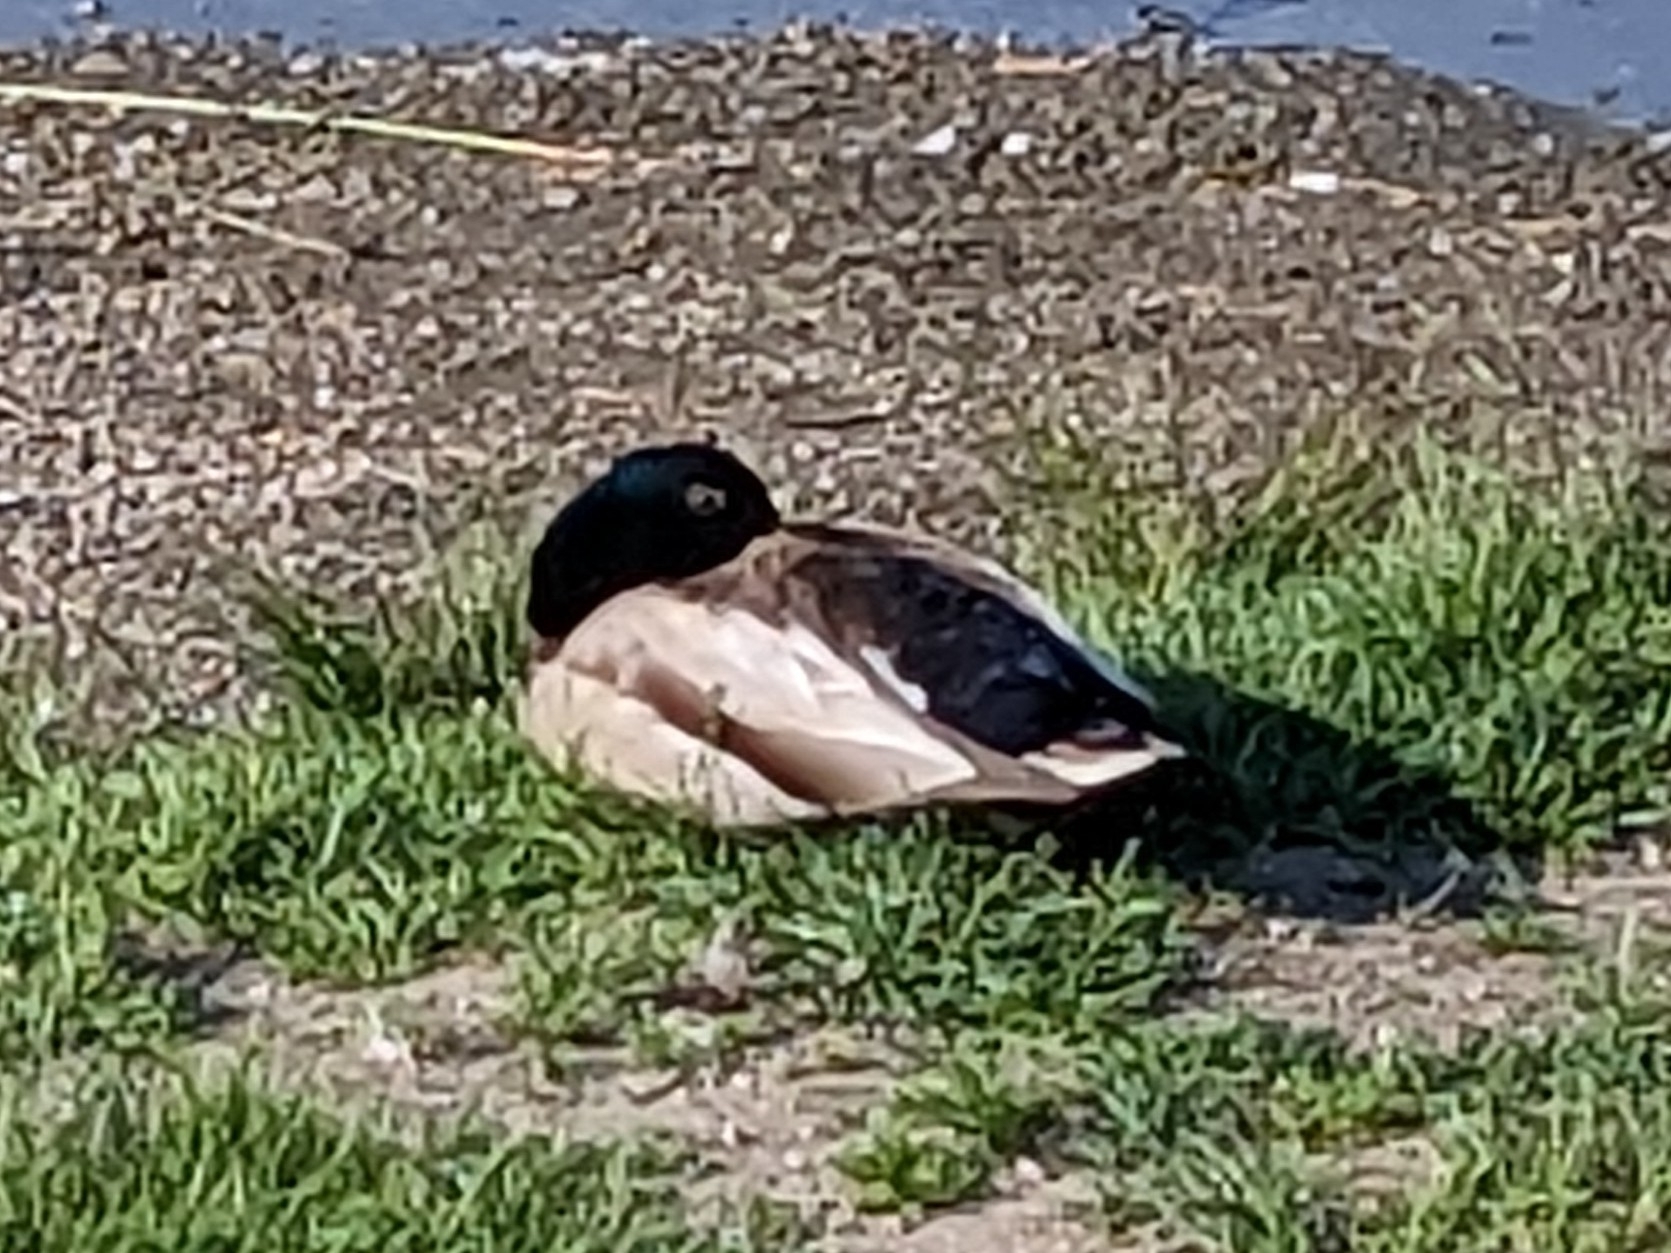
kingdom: Animalia
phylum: Chordata
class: Aves
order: Anseriformes
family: Anatidae
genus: Anas
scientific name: Anas platyrhynchos
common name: Mallard
